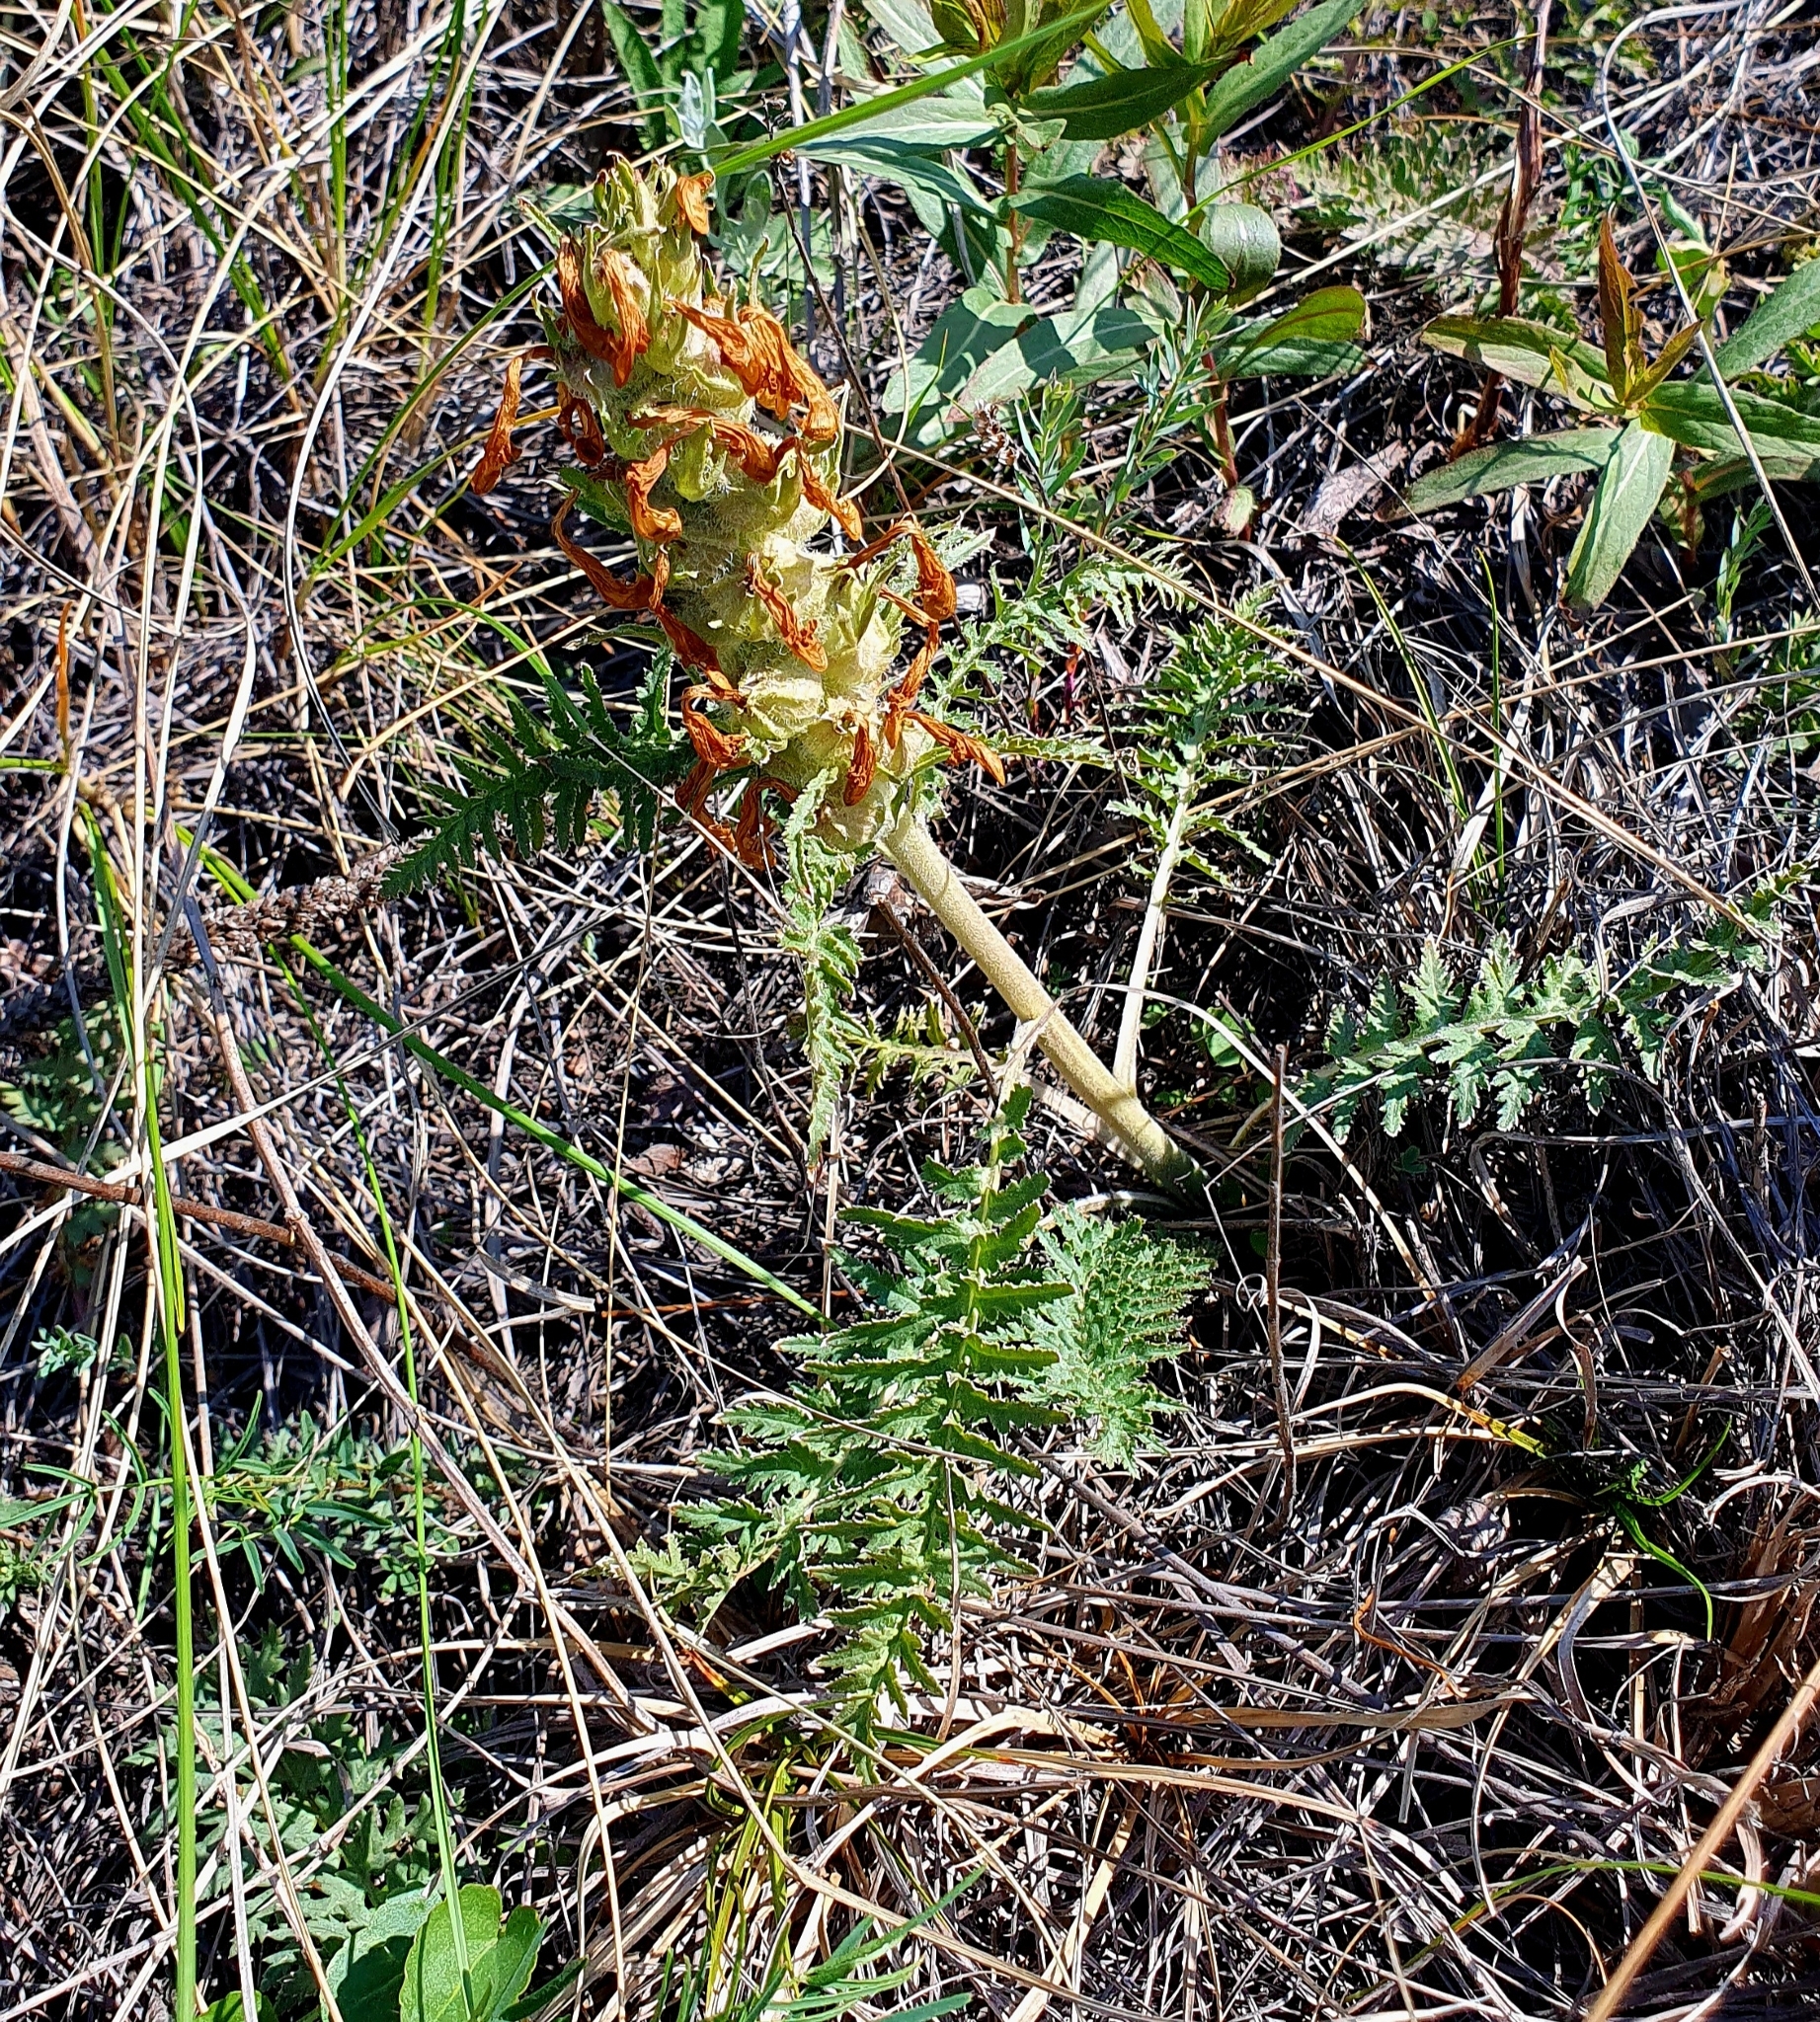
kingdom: Plantae
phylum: Tracheophyta
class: Magnoliopsida
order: Lamiales
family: Orobanchaceae
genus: Pedicularis
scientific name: Pedicularis physocalyx
